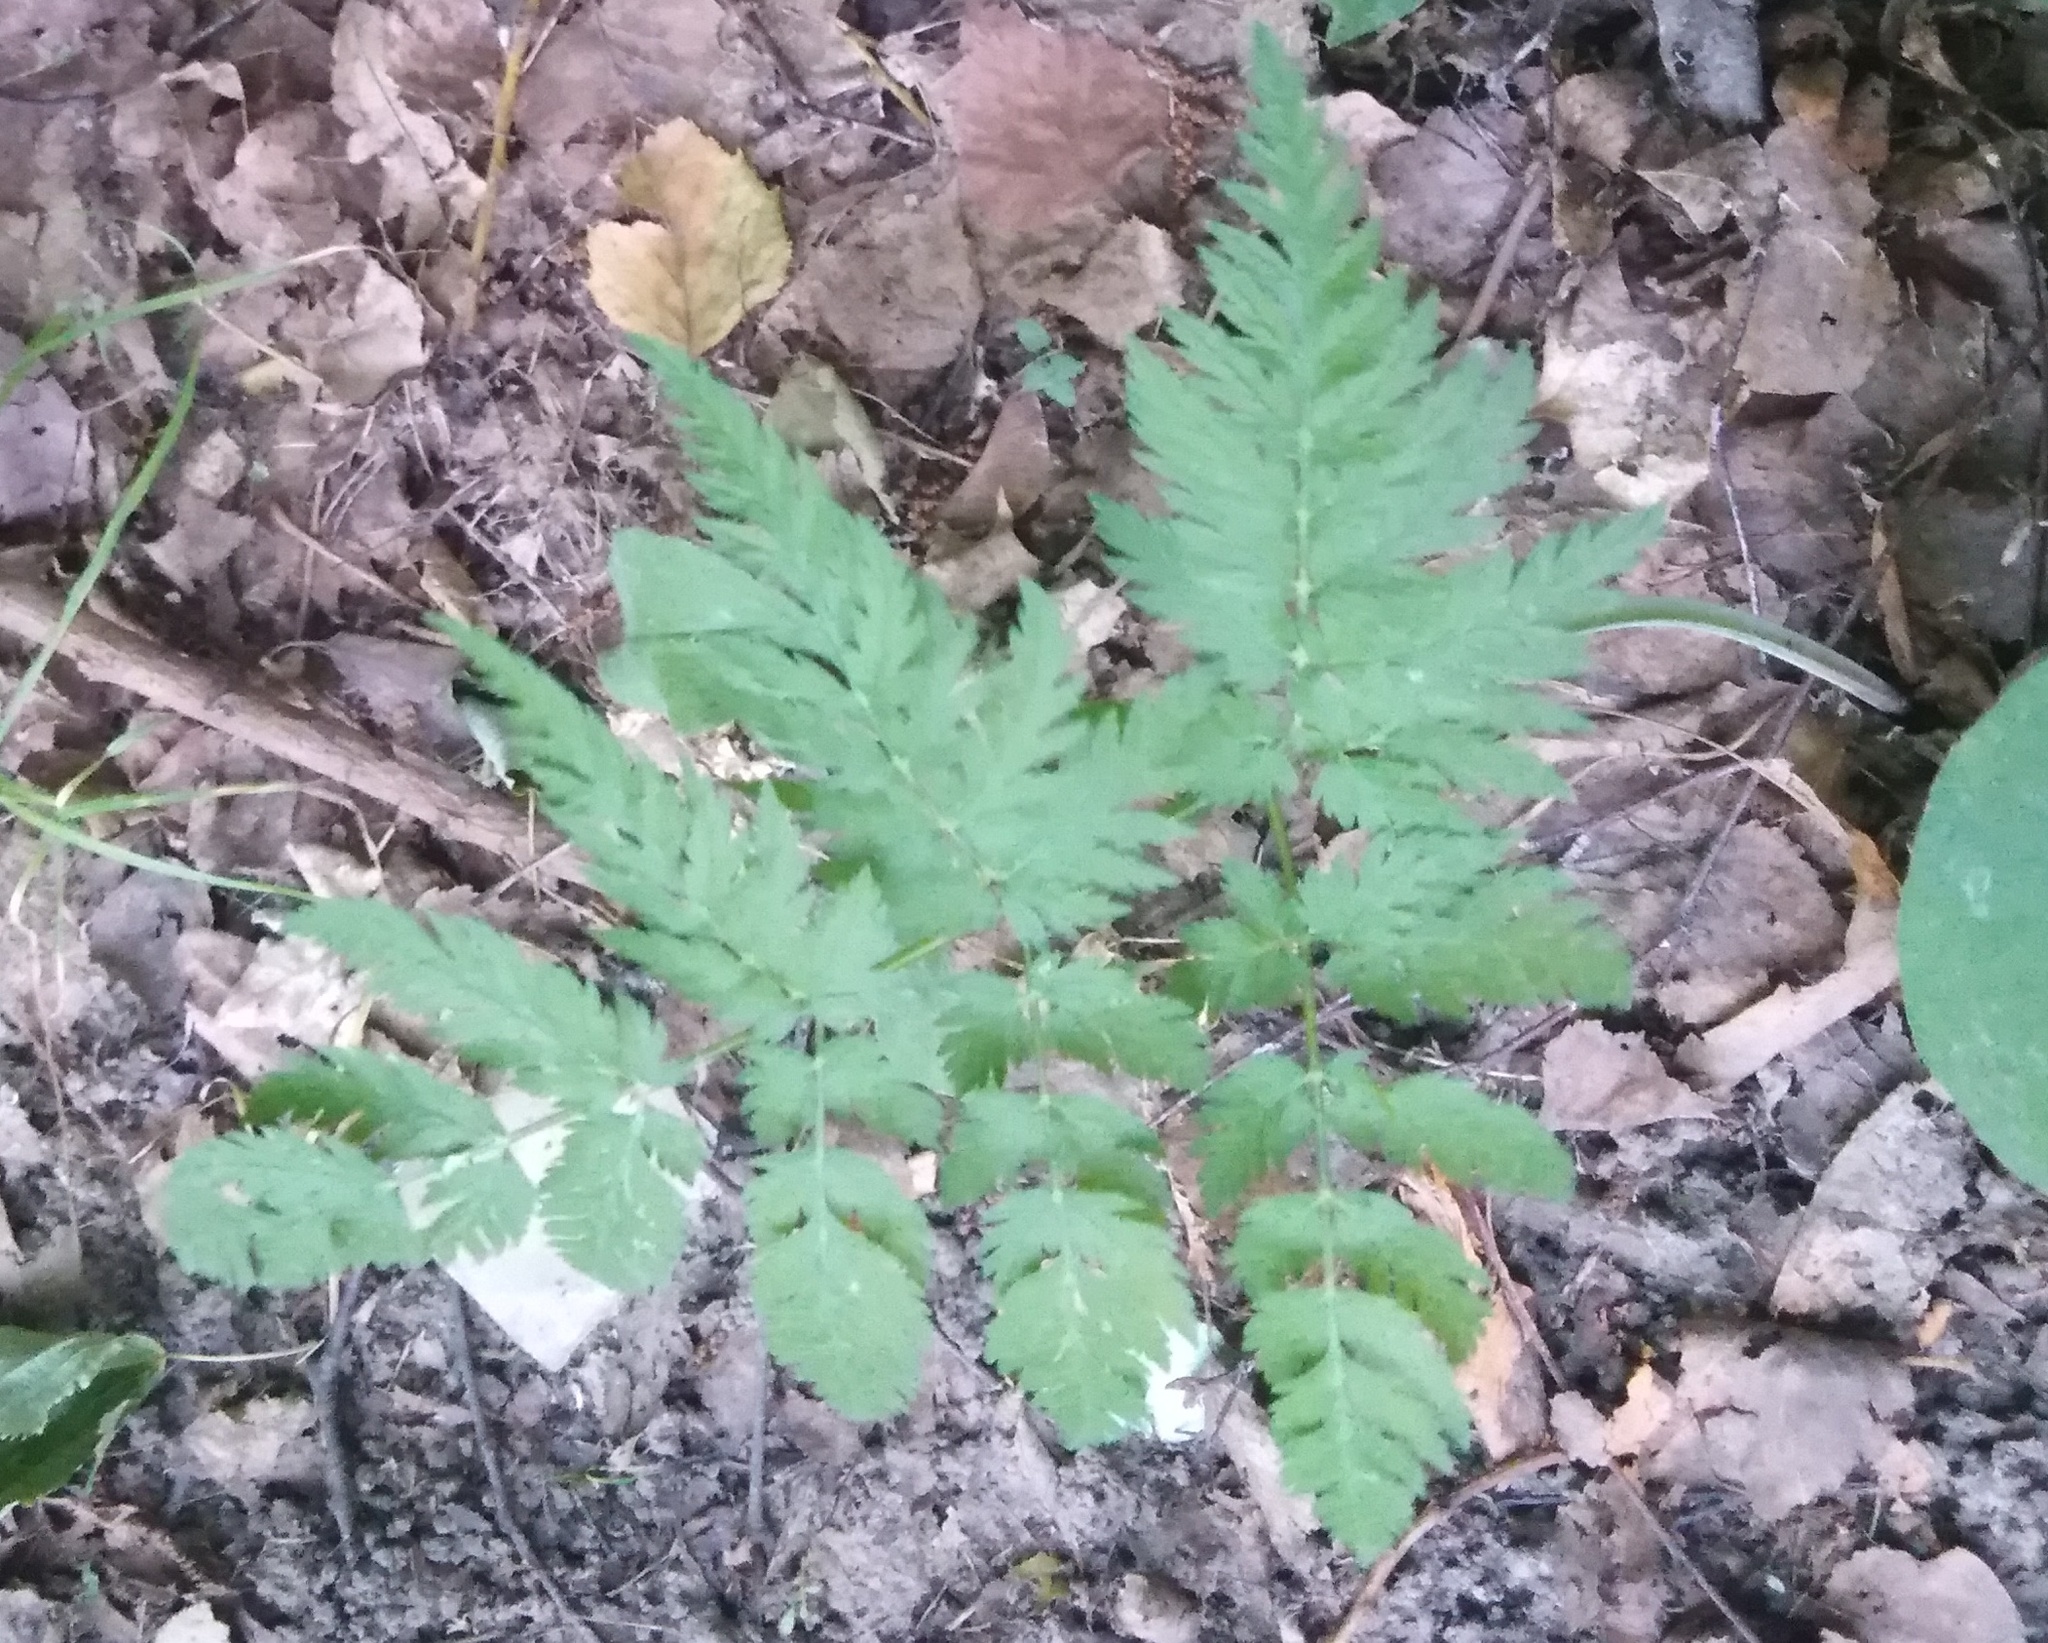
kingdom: Plantae
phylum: Tracheophyta
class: Magnoliopsida
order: Apiales
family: Apiaceae
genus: Anthriscus
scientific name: Anthriscus sylvestris
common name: Cow parsley
